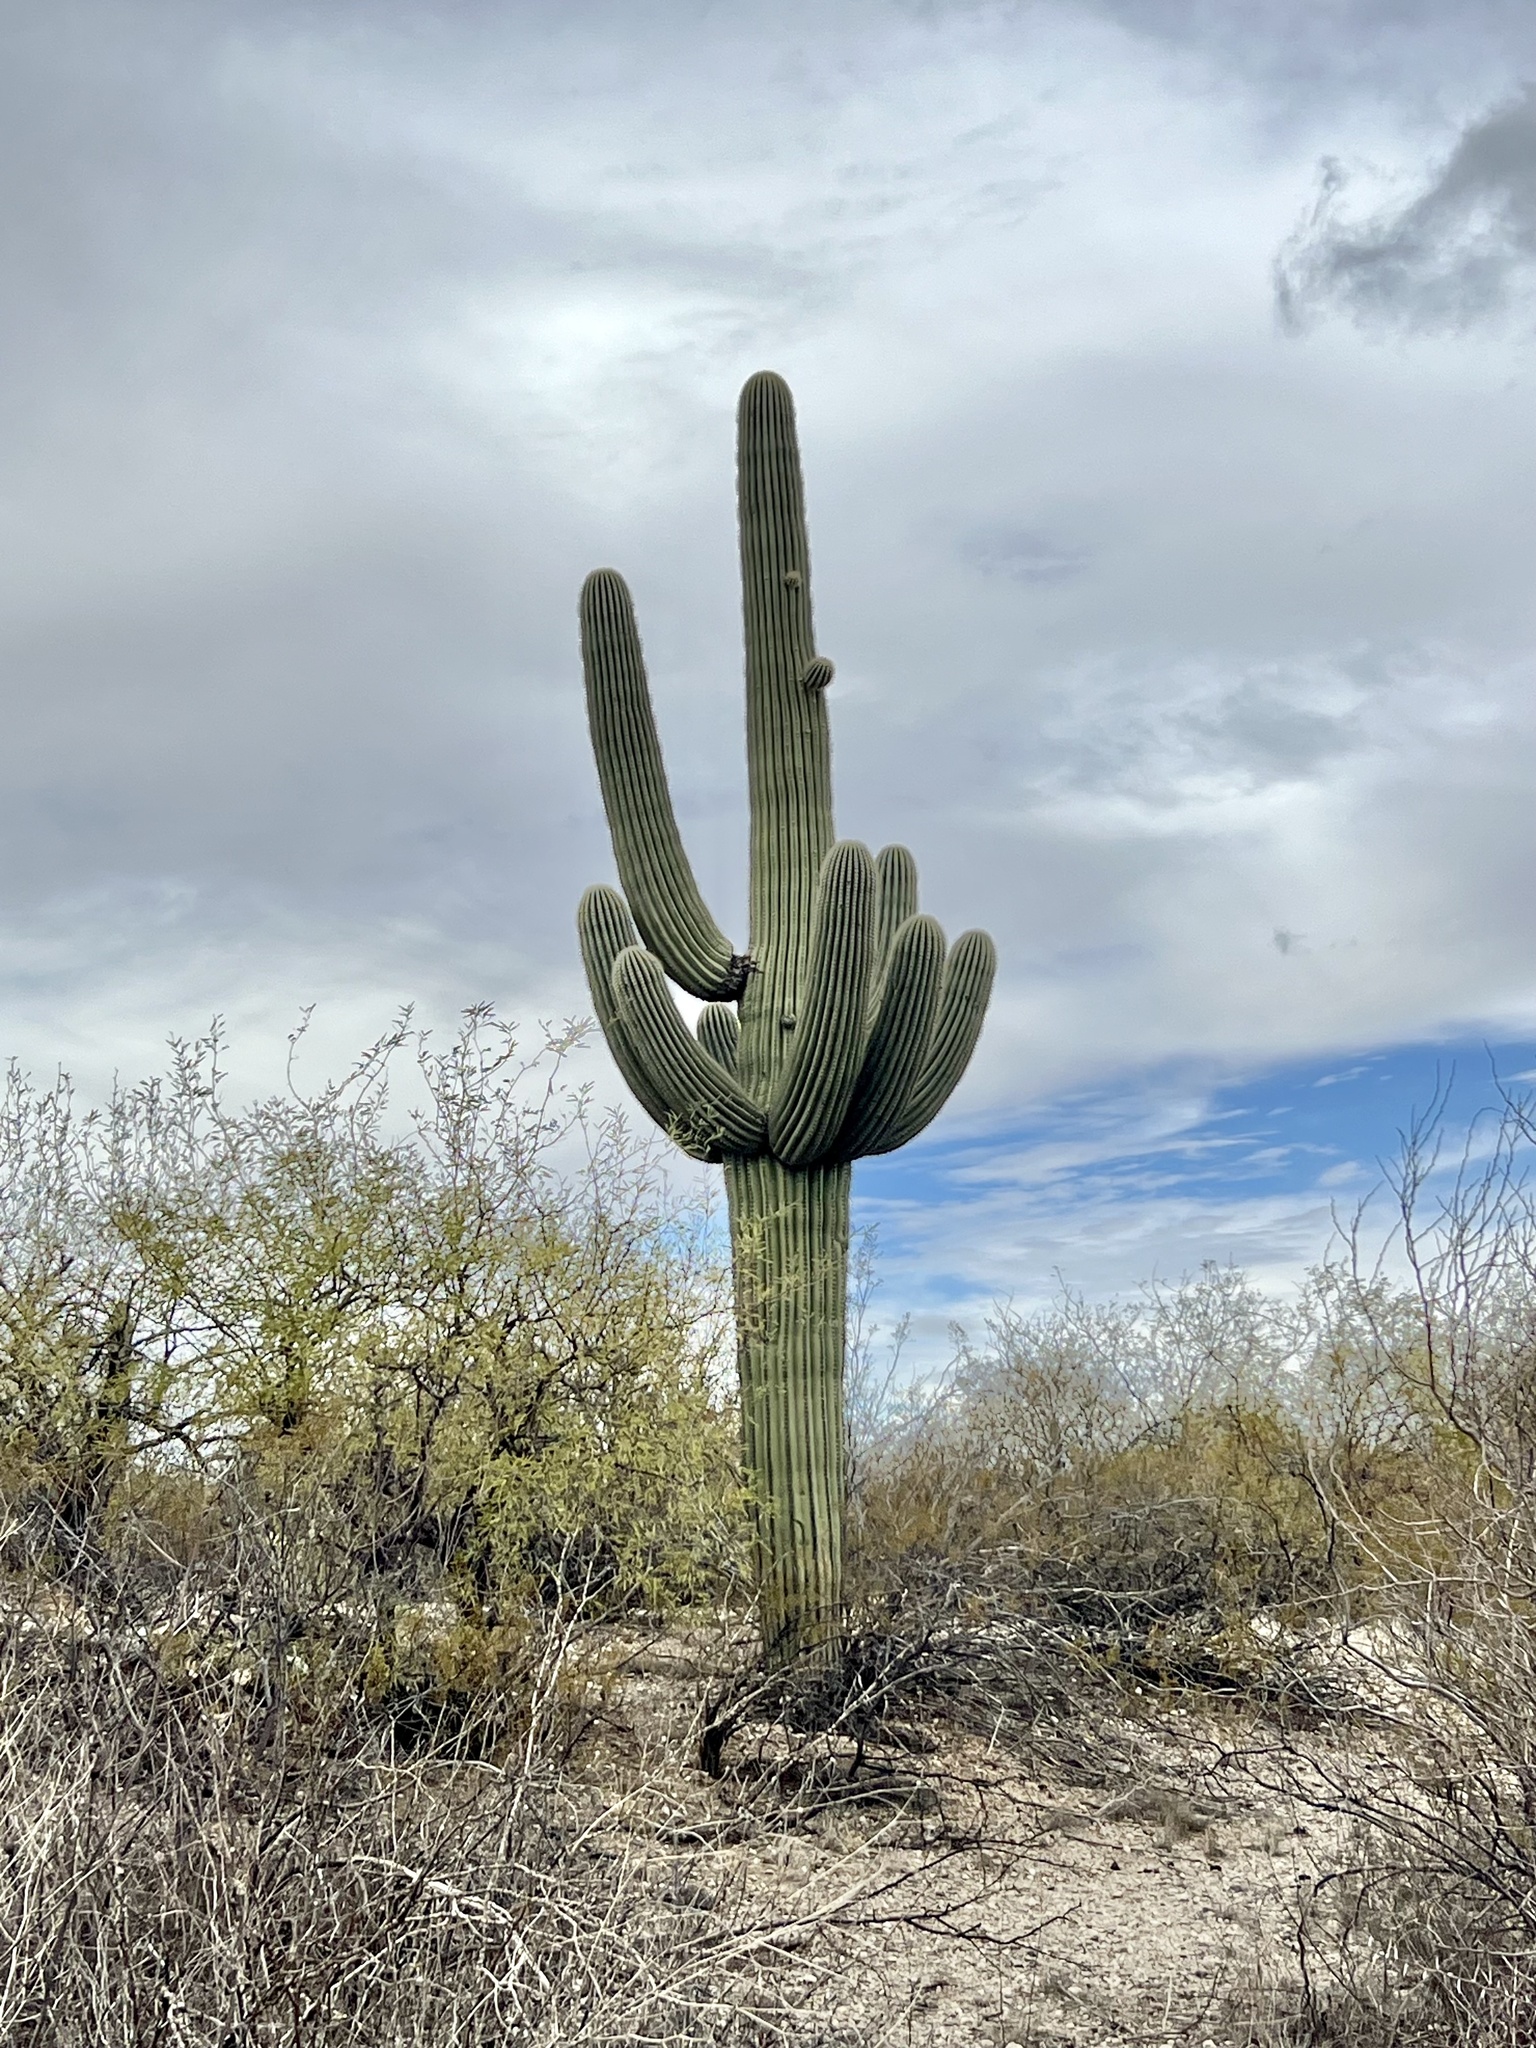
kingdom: Plantae
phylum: Tracheophyta
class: Magnoliopsida
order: Caryophyllales
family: Cactaceae
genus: Carnegiea
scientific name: Carnegiea gigantea
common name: Saguaro
